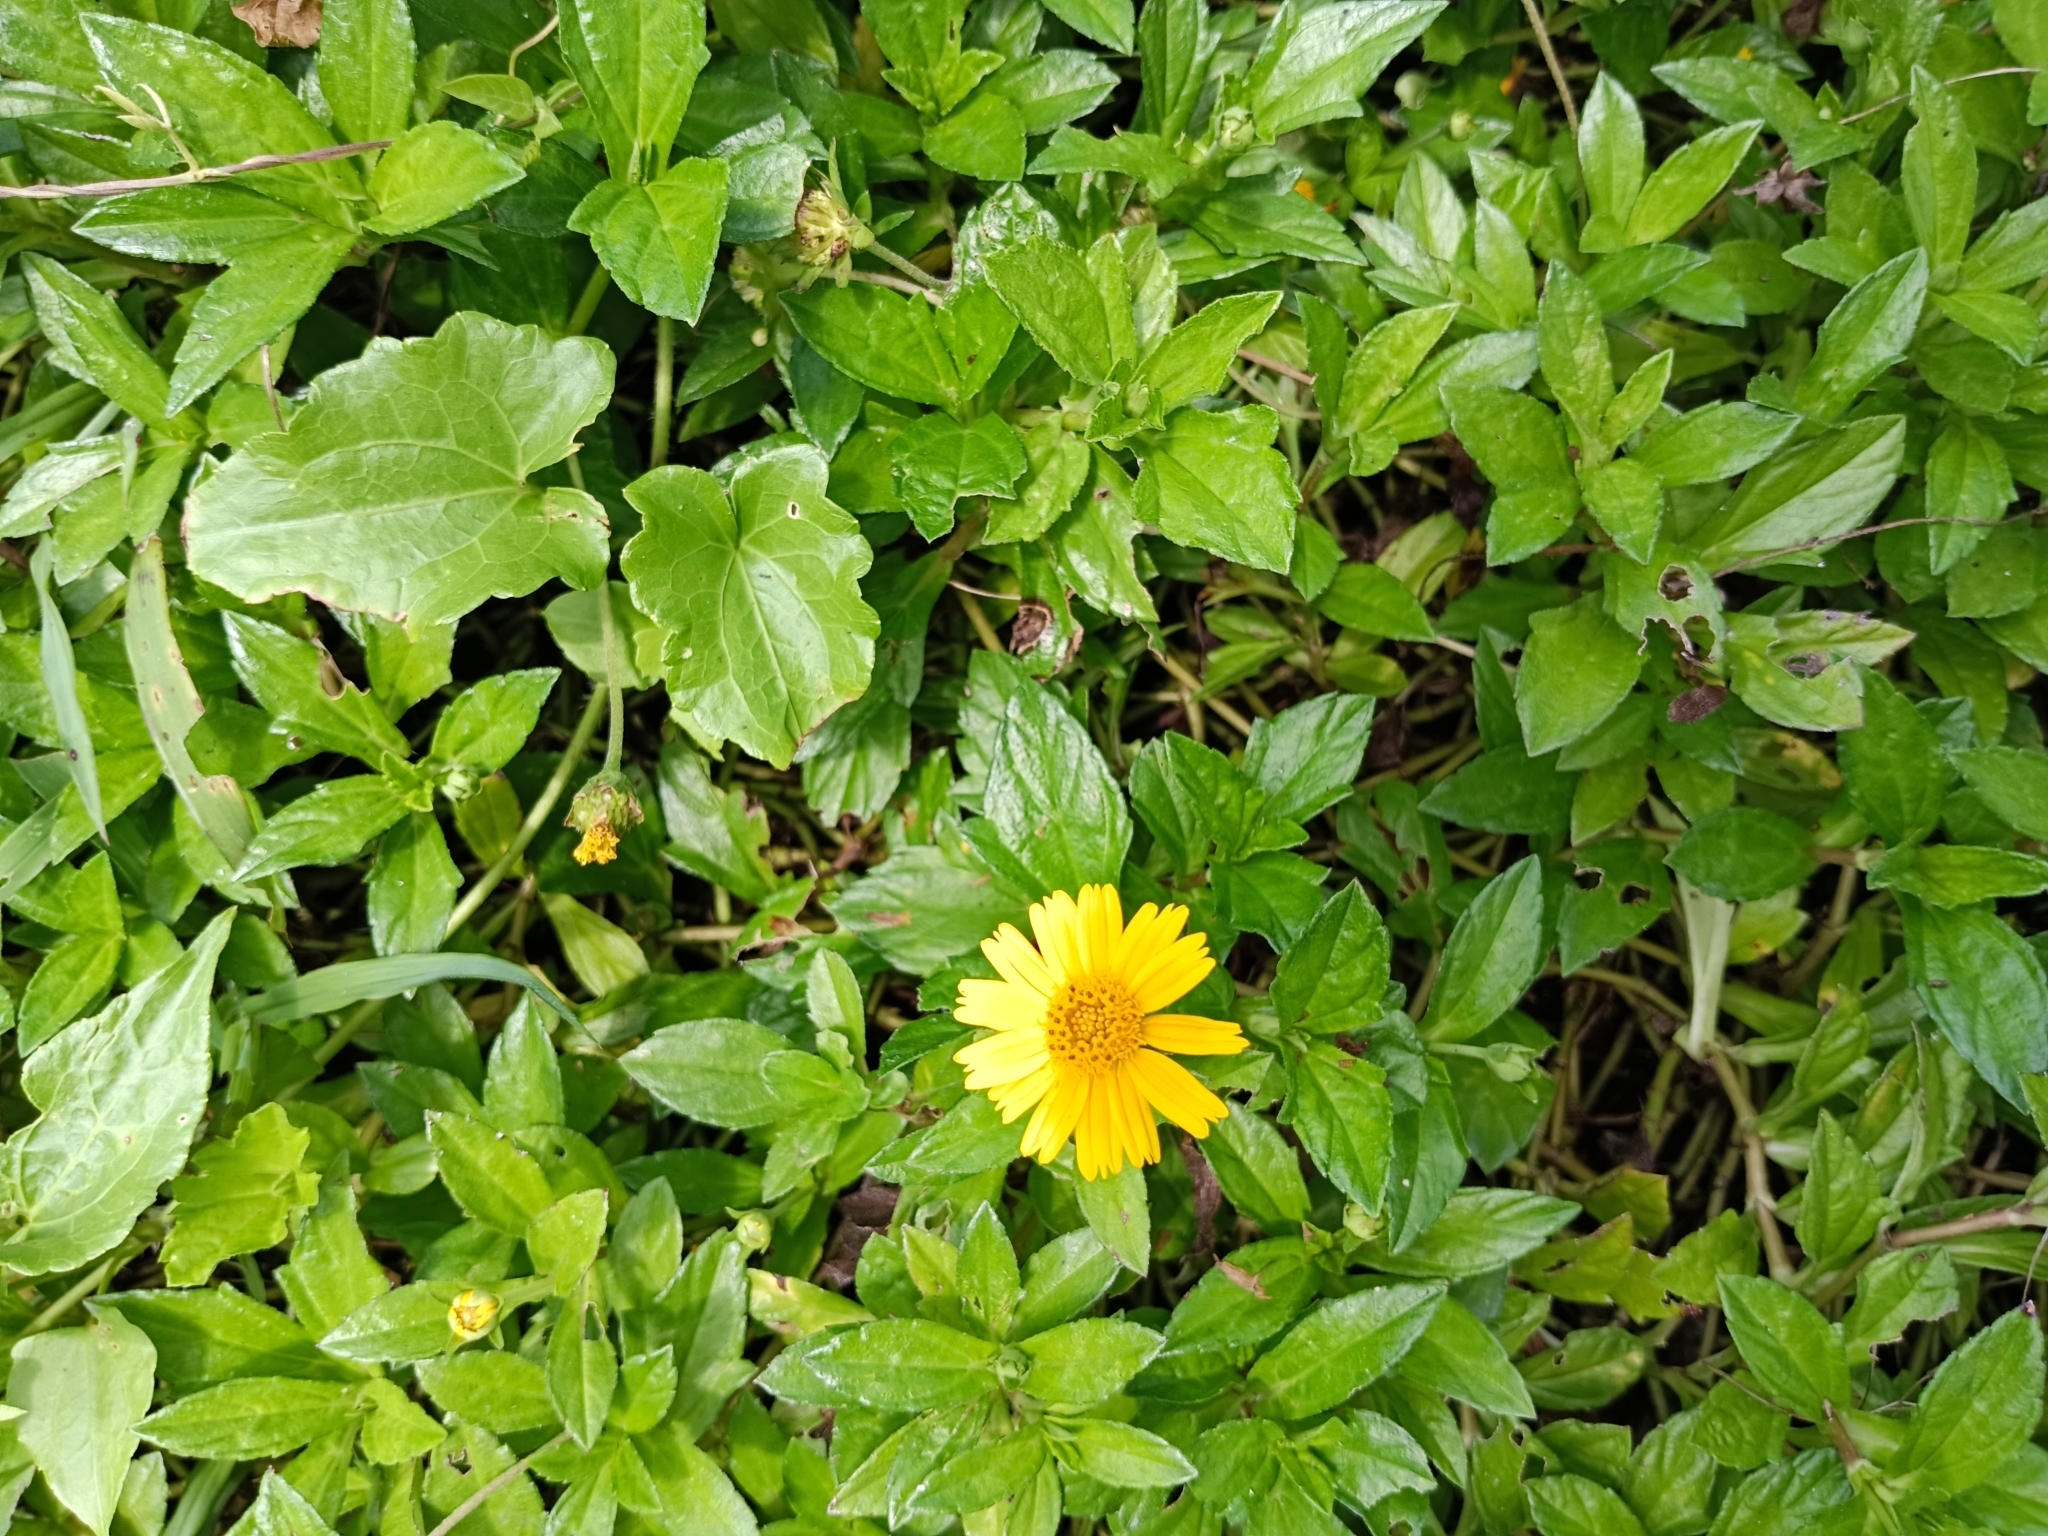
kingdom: Plantae
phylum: Tracheophyta
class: Magnoliopsida
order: Asterales
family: Asteraceae
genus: Sphagneticola
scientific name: Sphagneticola trilobata
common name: Bay biscayne creeping-oxeye
